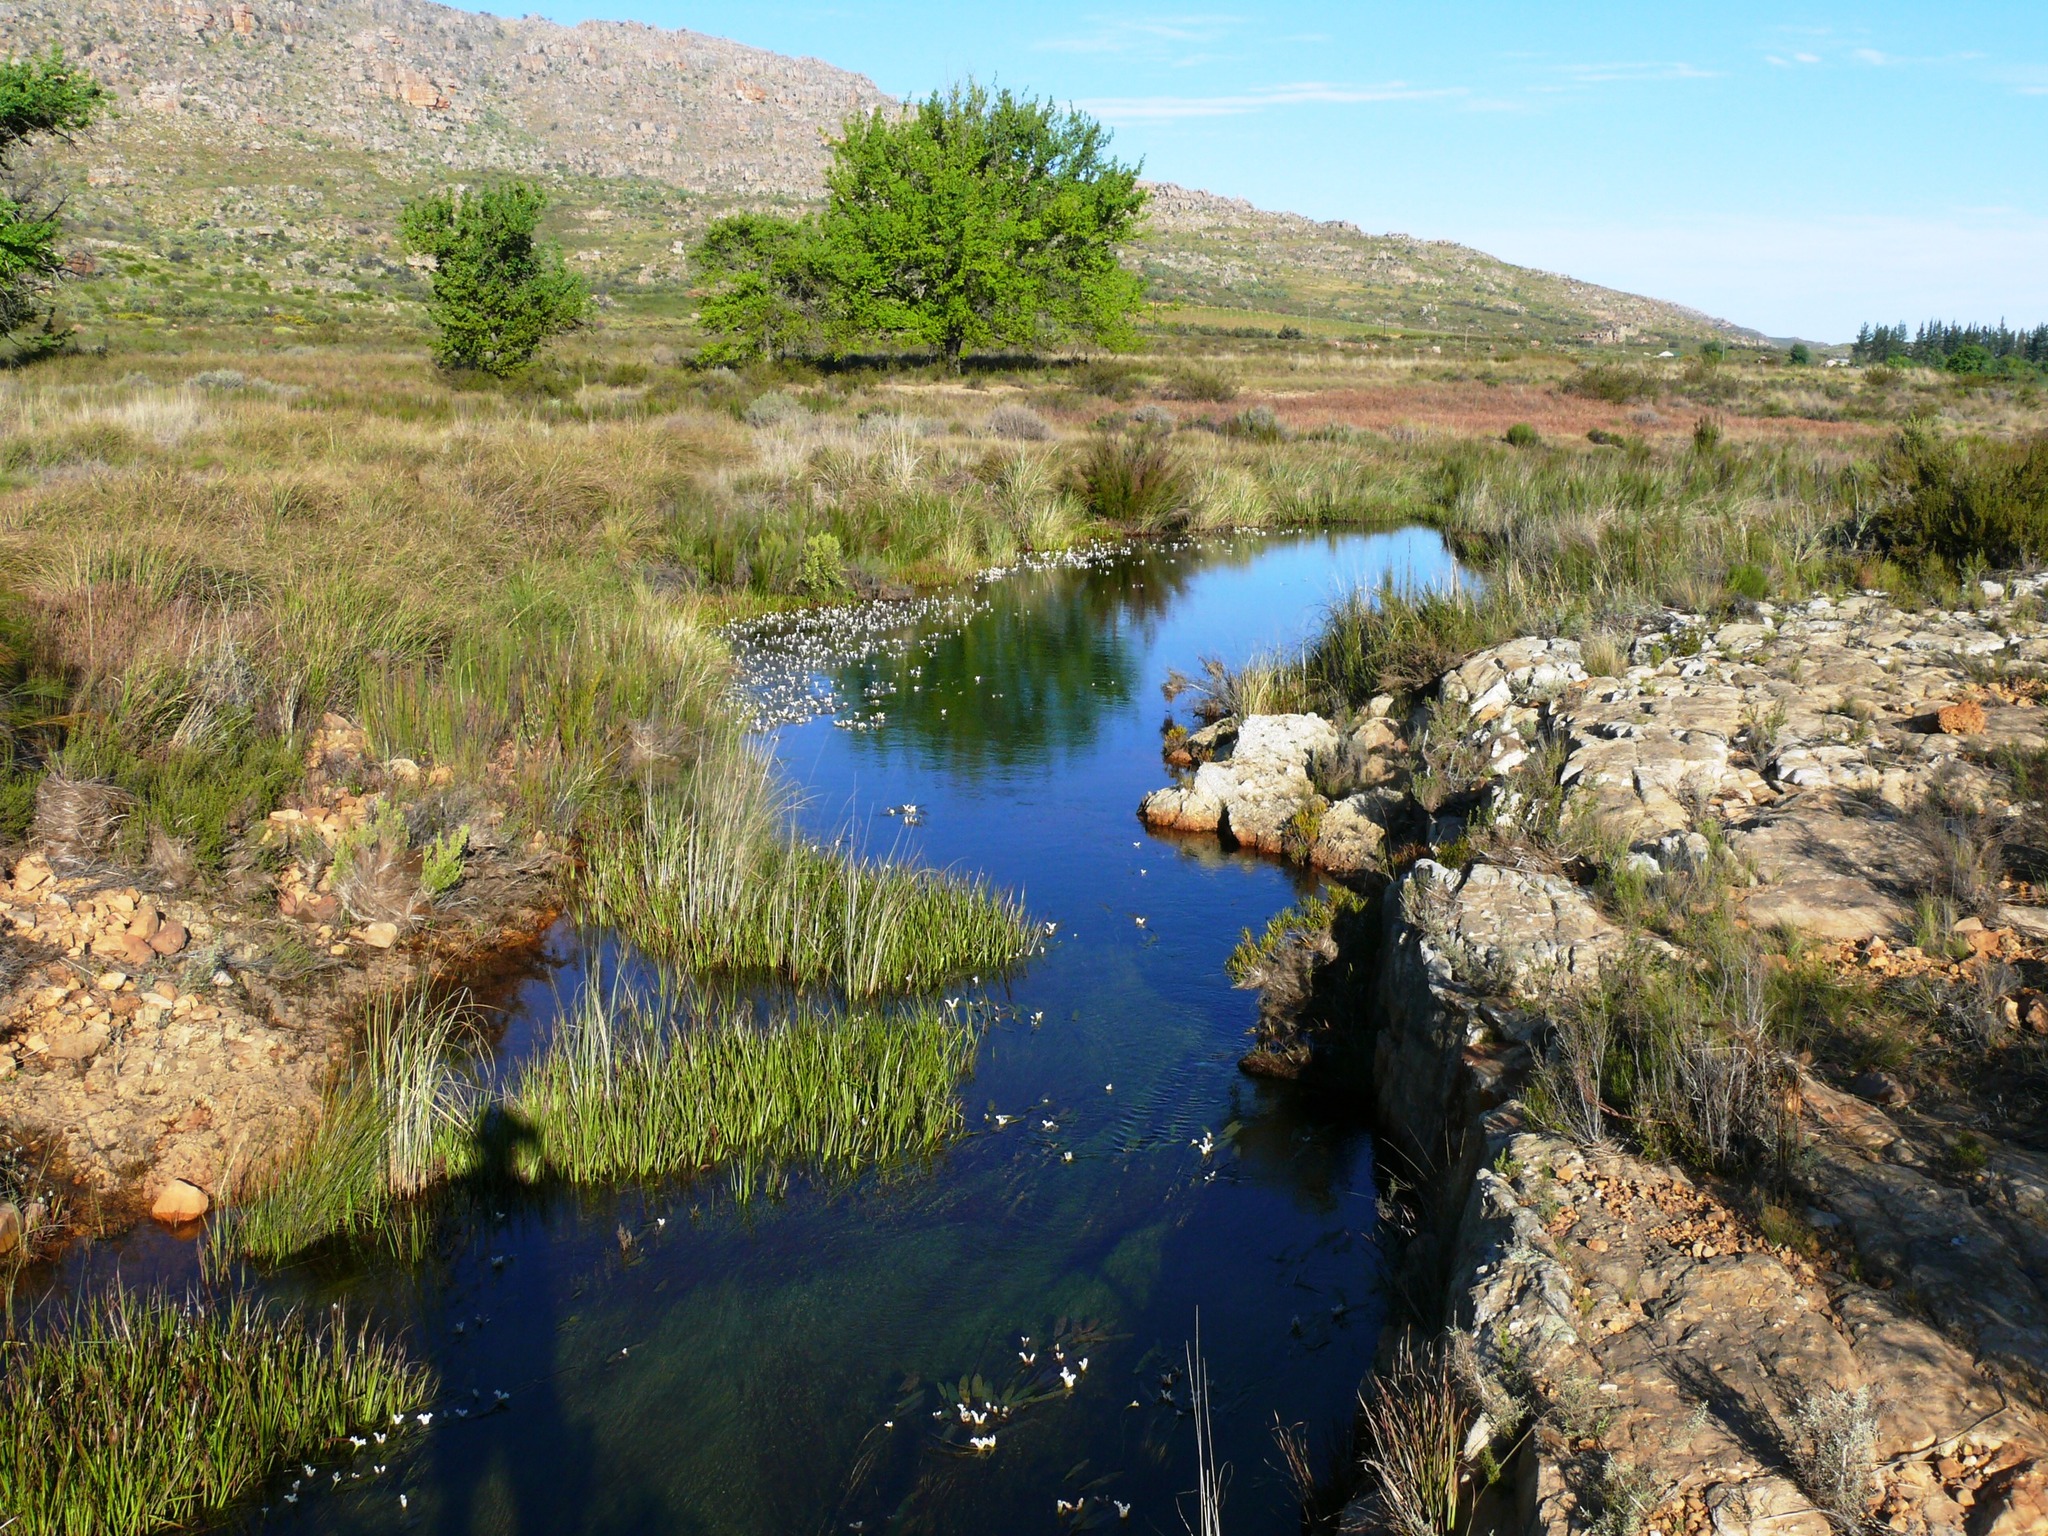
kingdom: Plantae
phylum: Tracheophyta
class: Liliopsida
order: Alismatales
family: Aponogetonaceae
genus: Aponogeton
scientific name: Aponogeton distachyos
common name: Cape-pondweed
